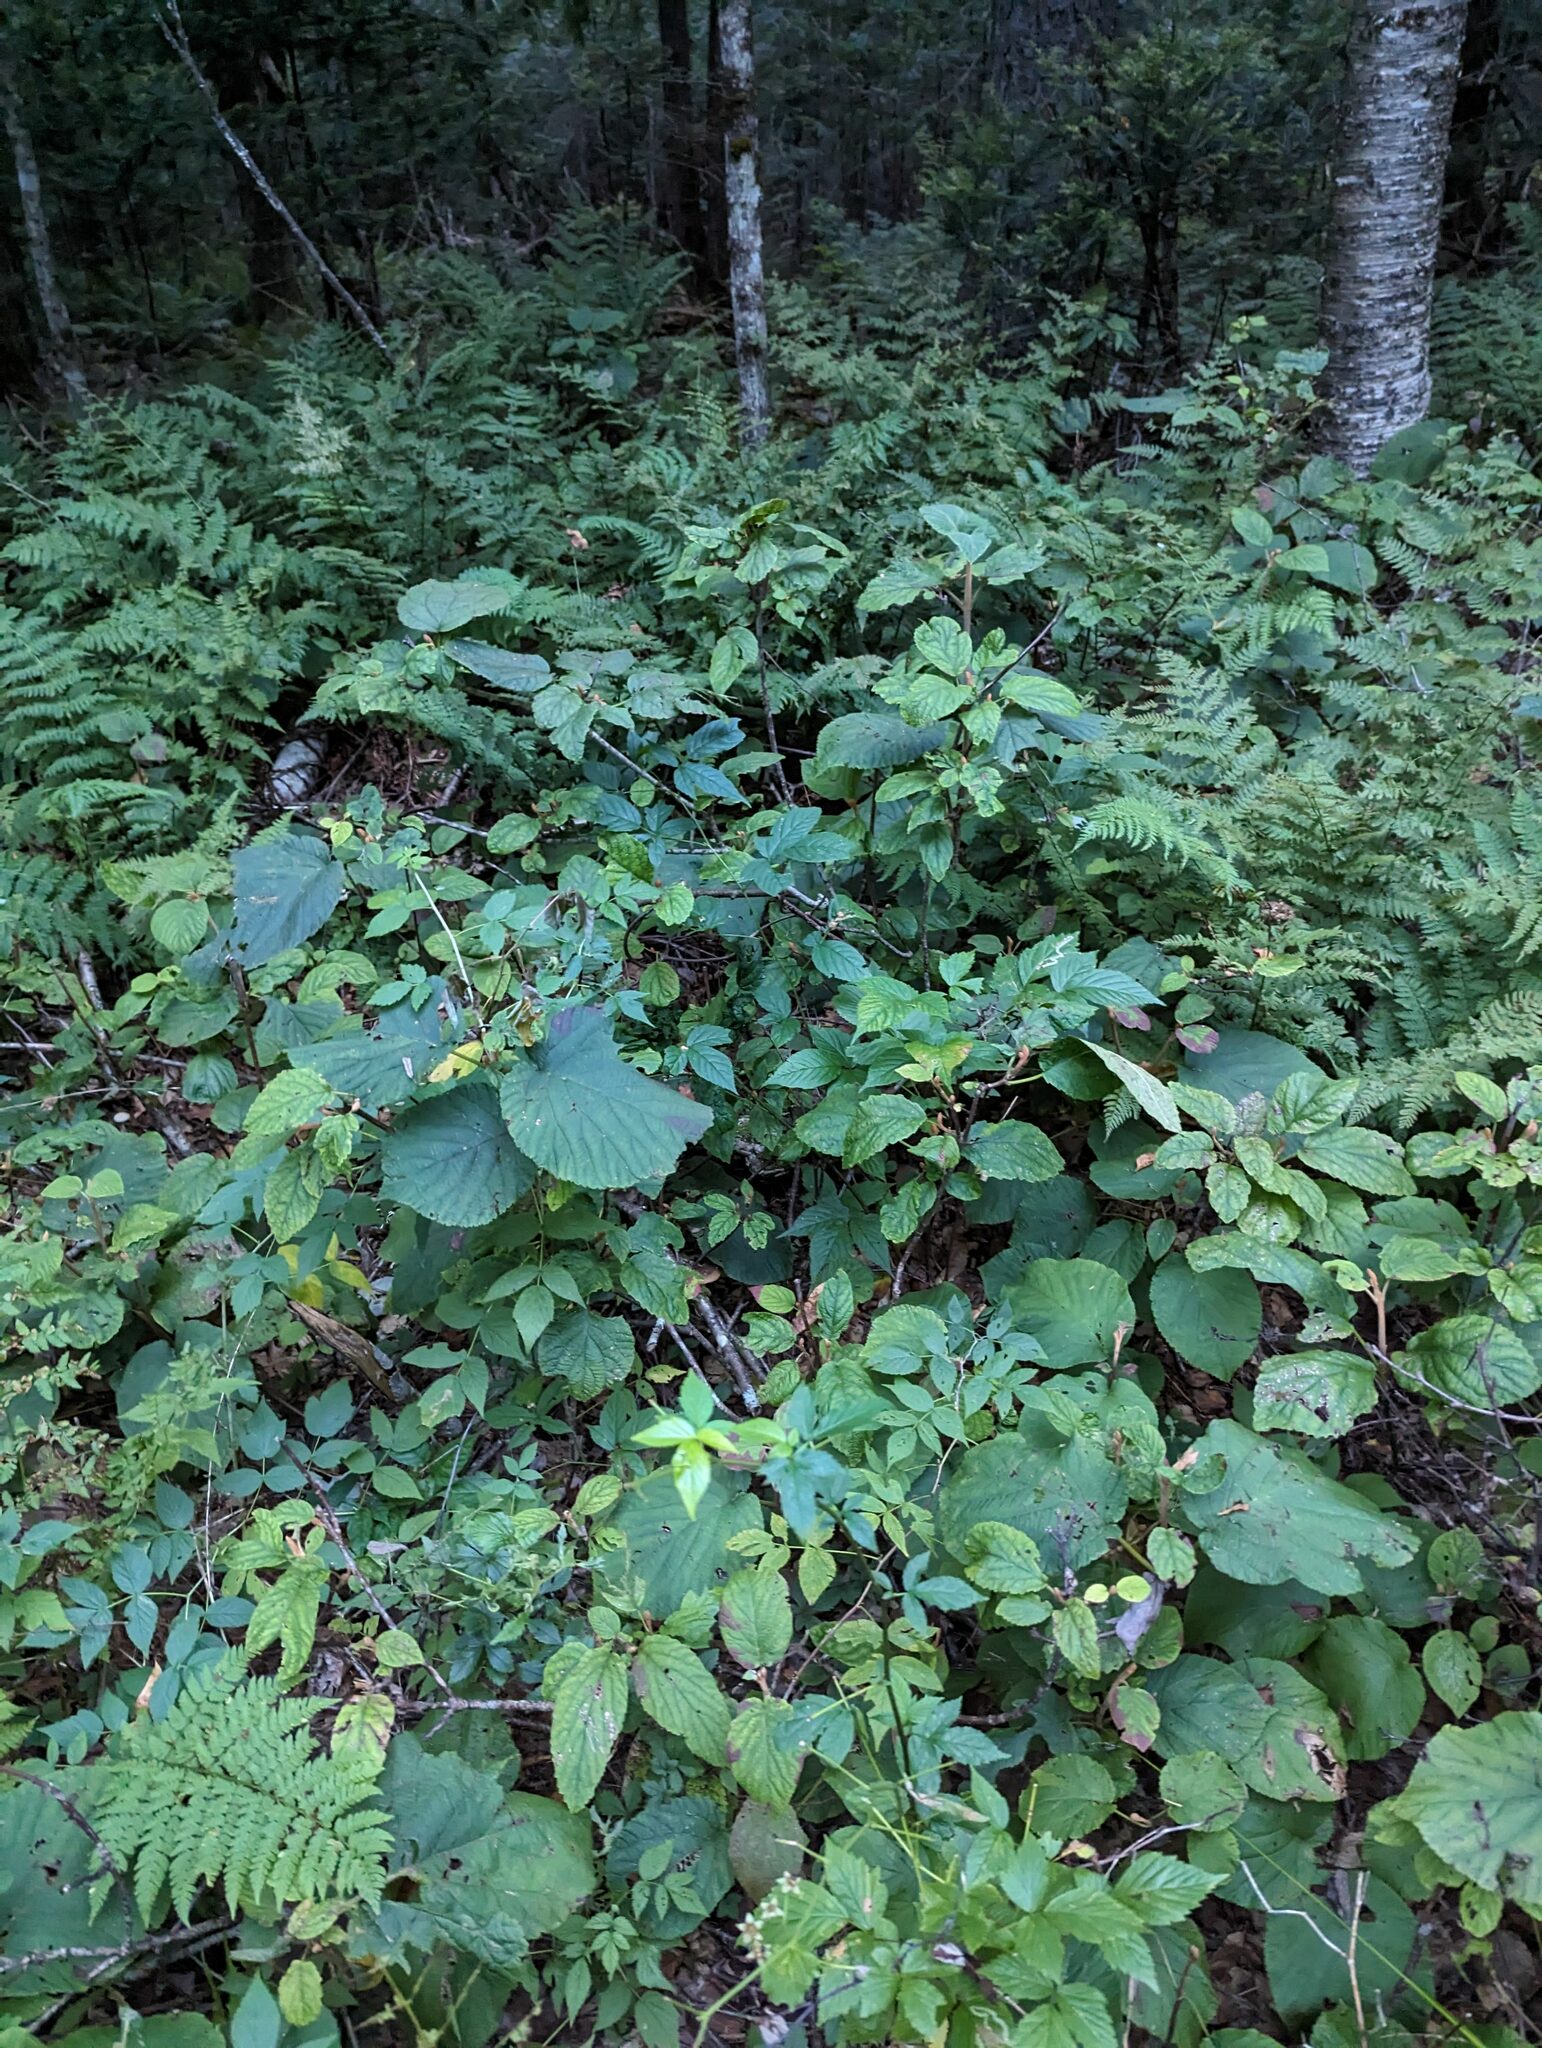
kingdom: Plantae
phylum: Tracheophyta
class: Magnoliopsida
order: Dipsacales
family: Viburnaceae
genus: Viburnum
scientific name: Viburnum lantanoides
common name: Hobblebush
